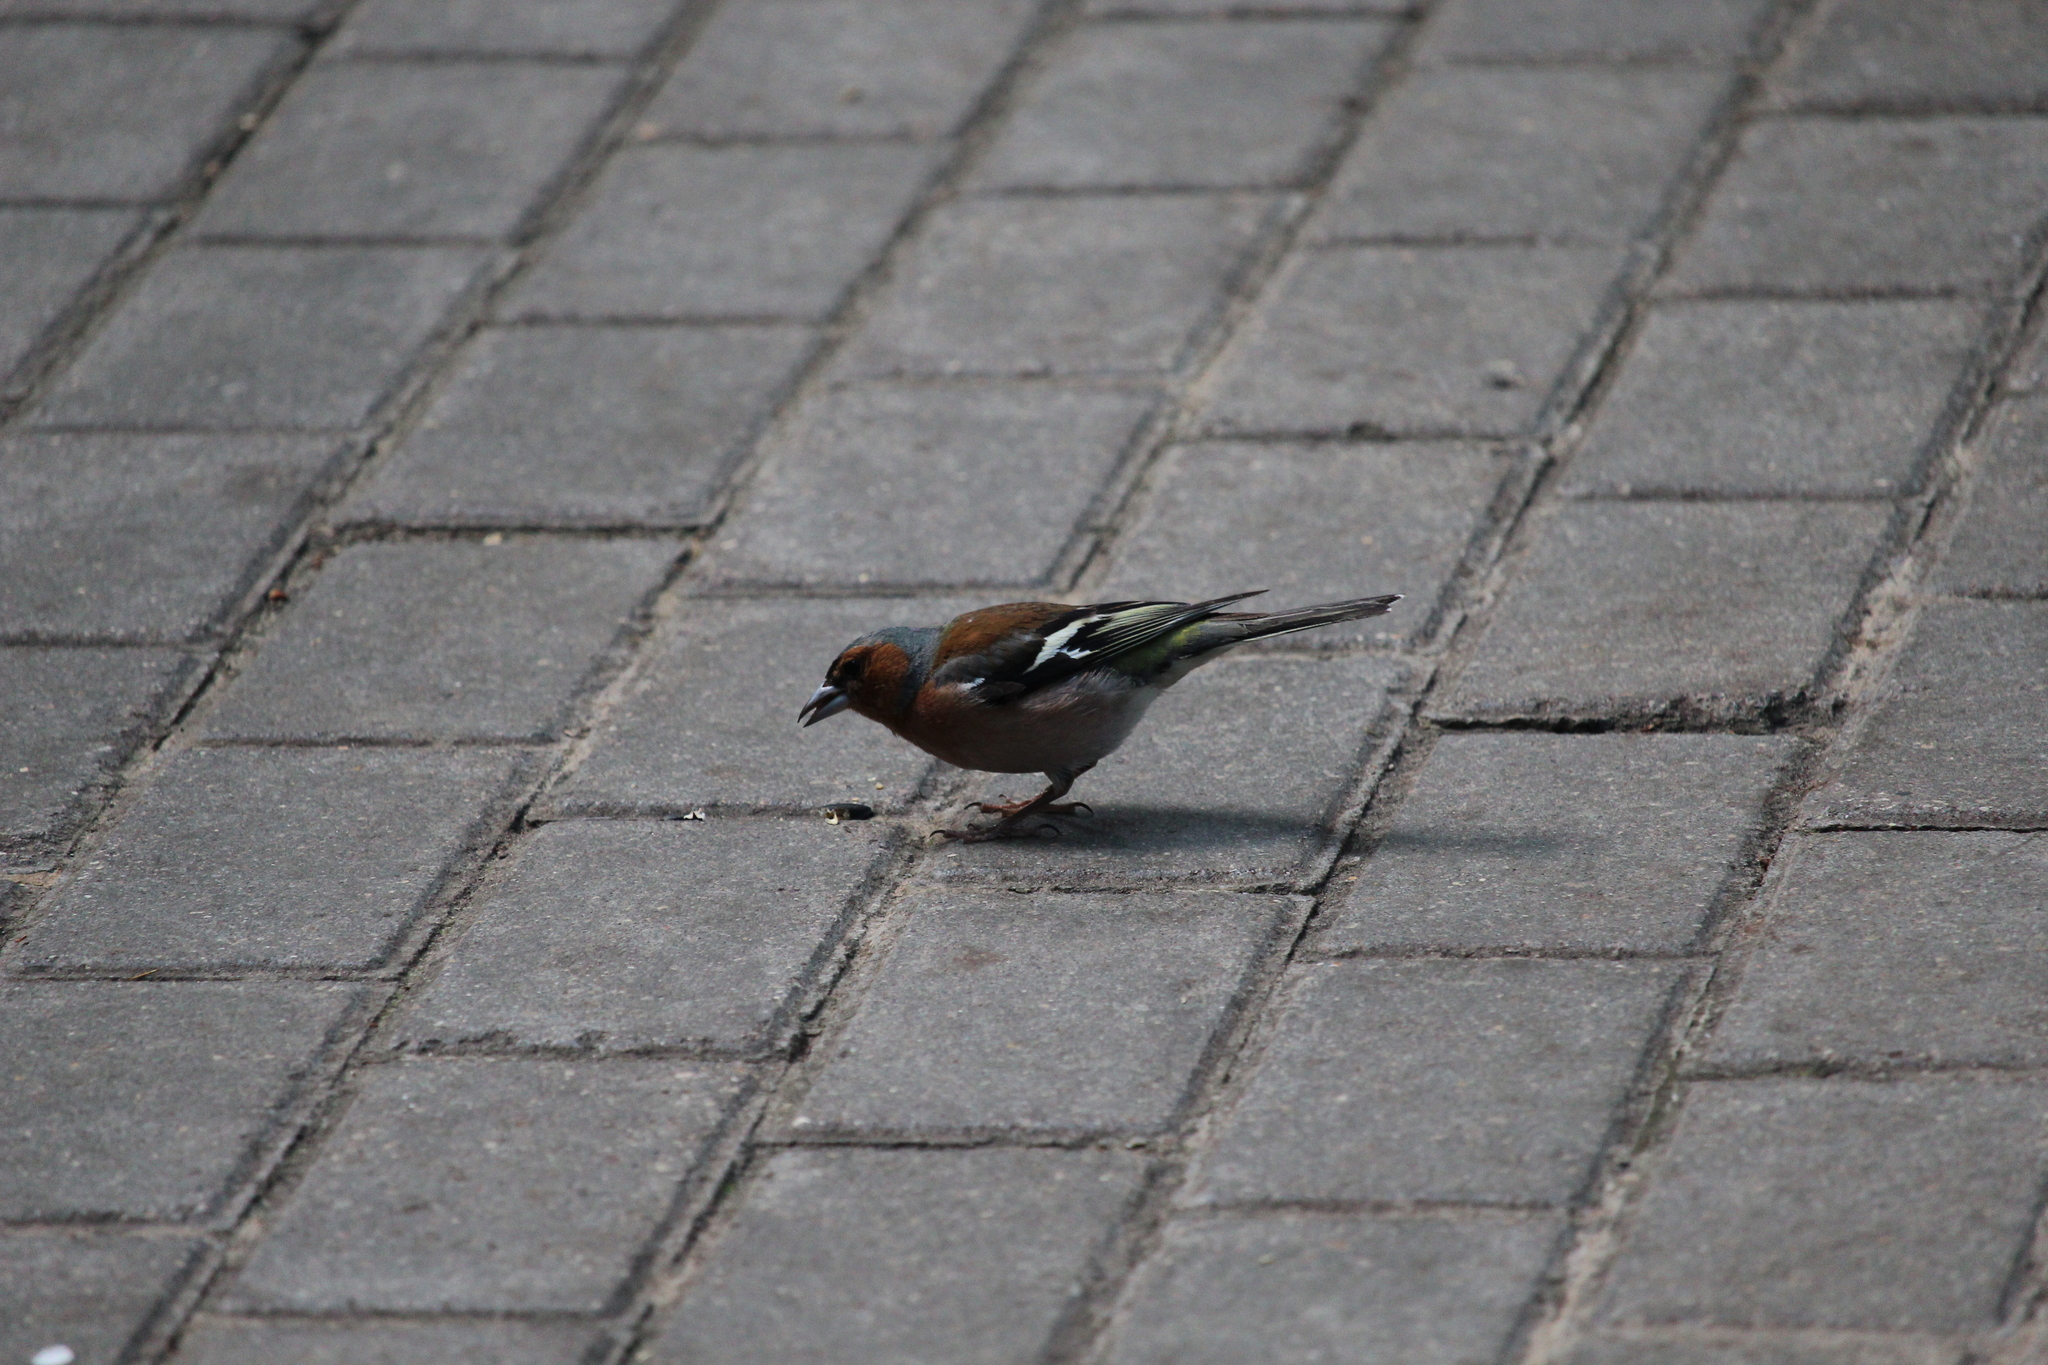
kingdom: Animalia
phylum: Chordata
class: Aves
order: Passeriformes
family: Fringillidae
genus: Fringilla
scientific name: Fringilla coelebs
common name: Common chaffinch
